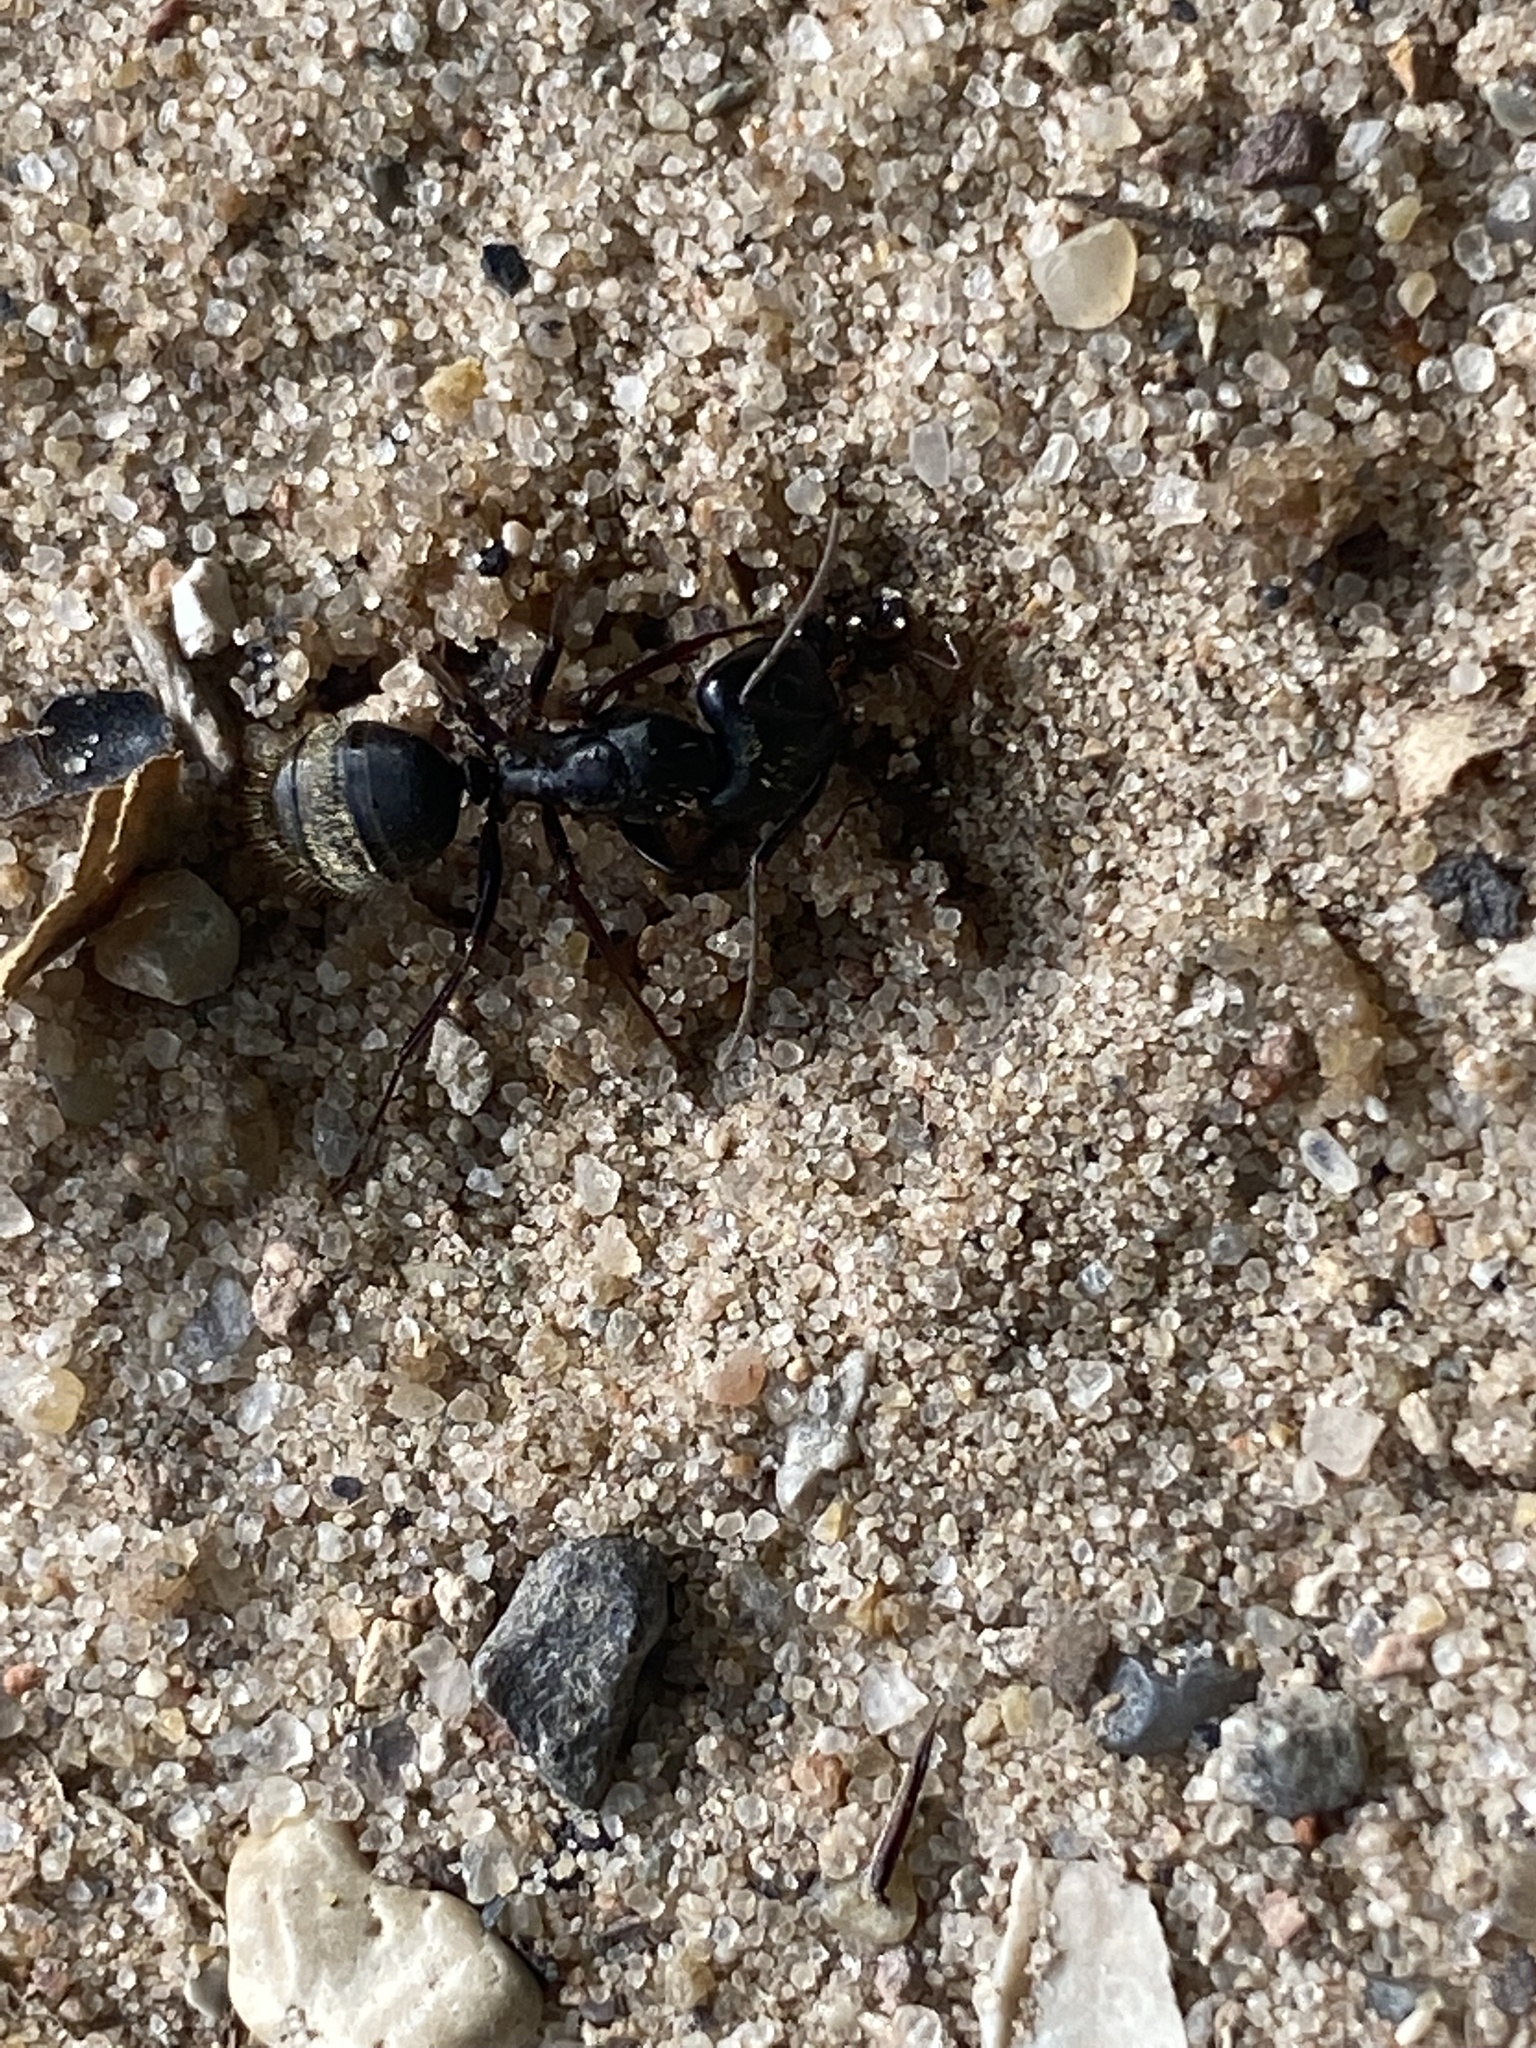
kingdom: Animalia
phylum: Arthropoda
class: Insecta
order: Hymenoptera
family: Formicidae
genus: Camponotus
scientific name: Camponotus pennsylvanicus
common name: Black carpenter ant
